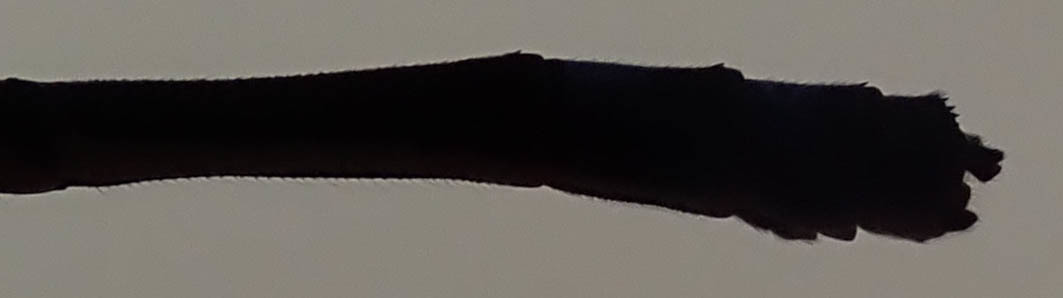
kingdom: Animalia
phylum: Arthropoda
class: Insecta
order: Odonata
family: Coenagrionidae
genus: Pseudagrion
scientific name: Pseudagrion deningi
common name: Dening's sprite
